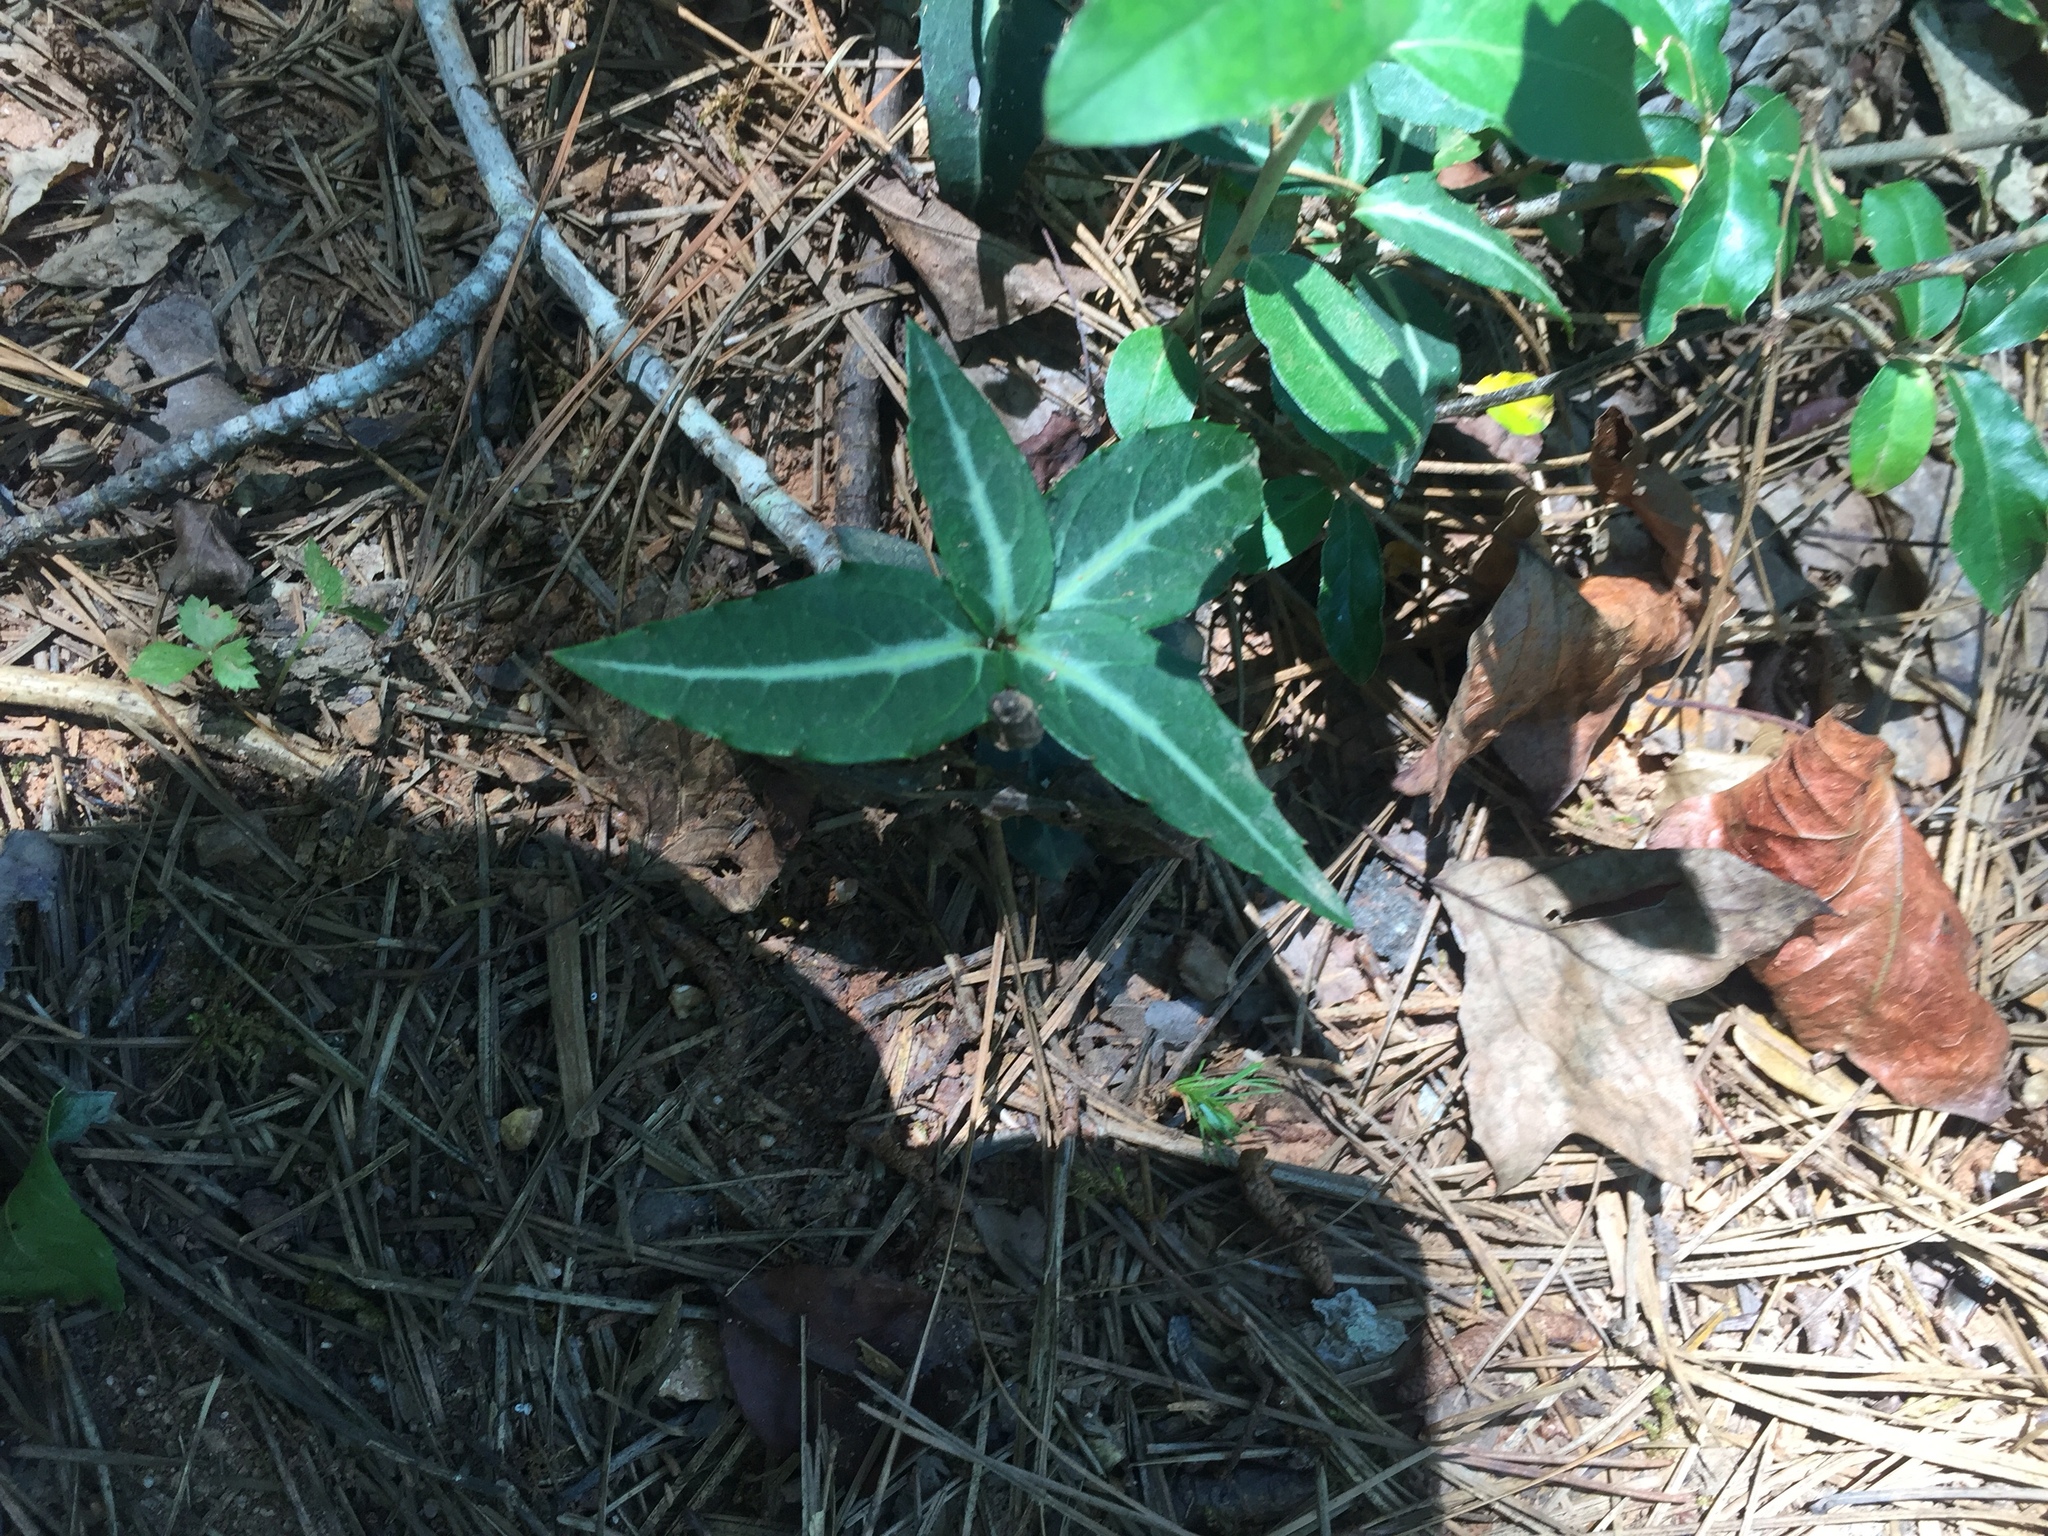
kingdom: Plantae
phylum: Tracheophyta
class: Magnoliopsida
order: Ericales
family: Ericaceae
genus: Chimaphila
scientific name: Chimaphila maculata
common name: Spotted pipsissewa
